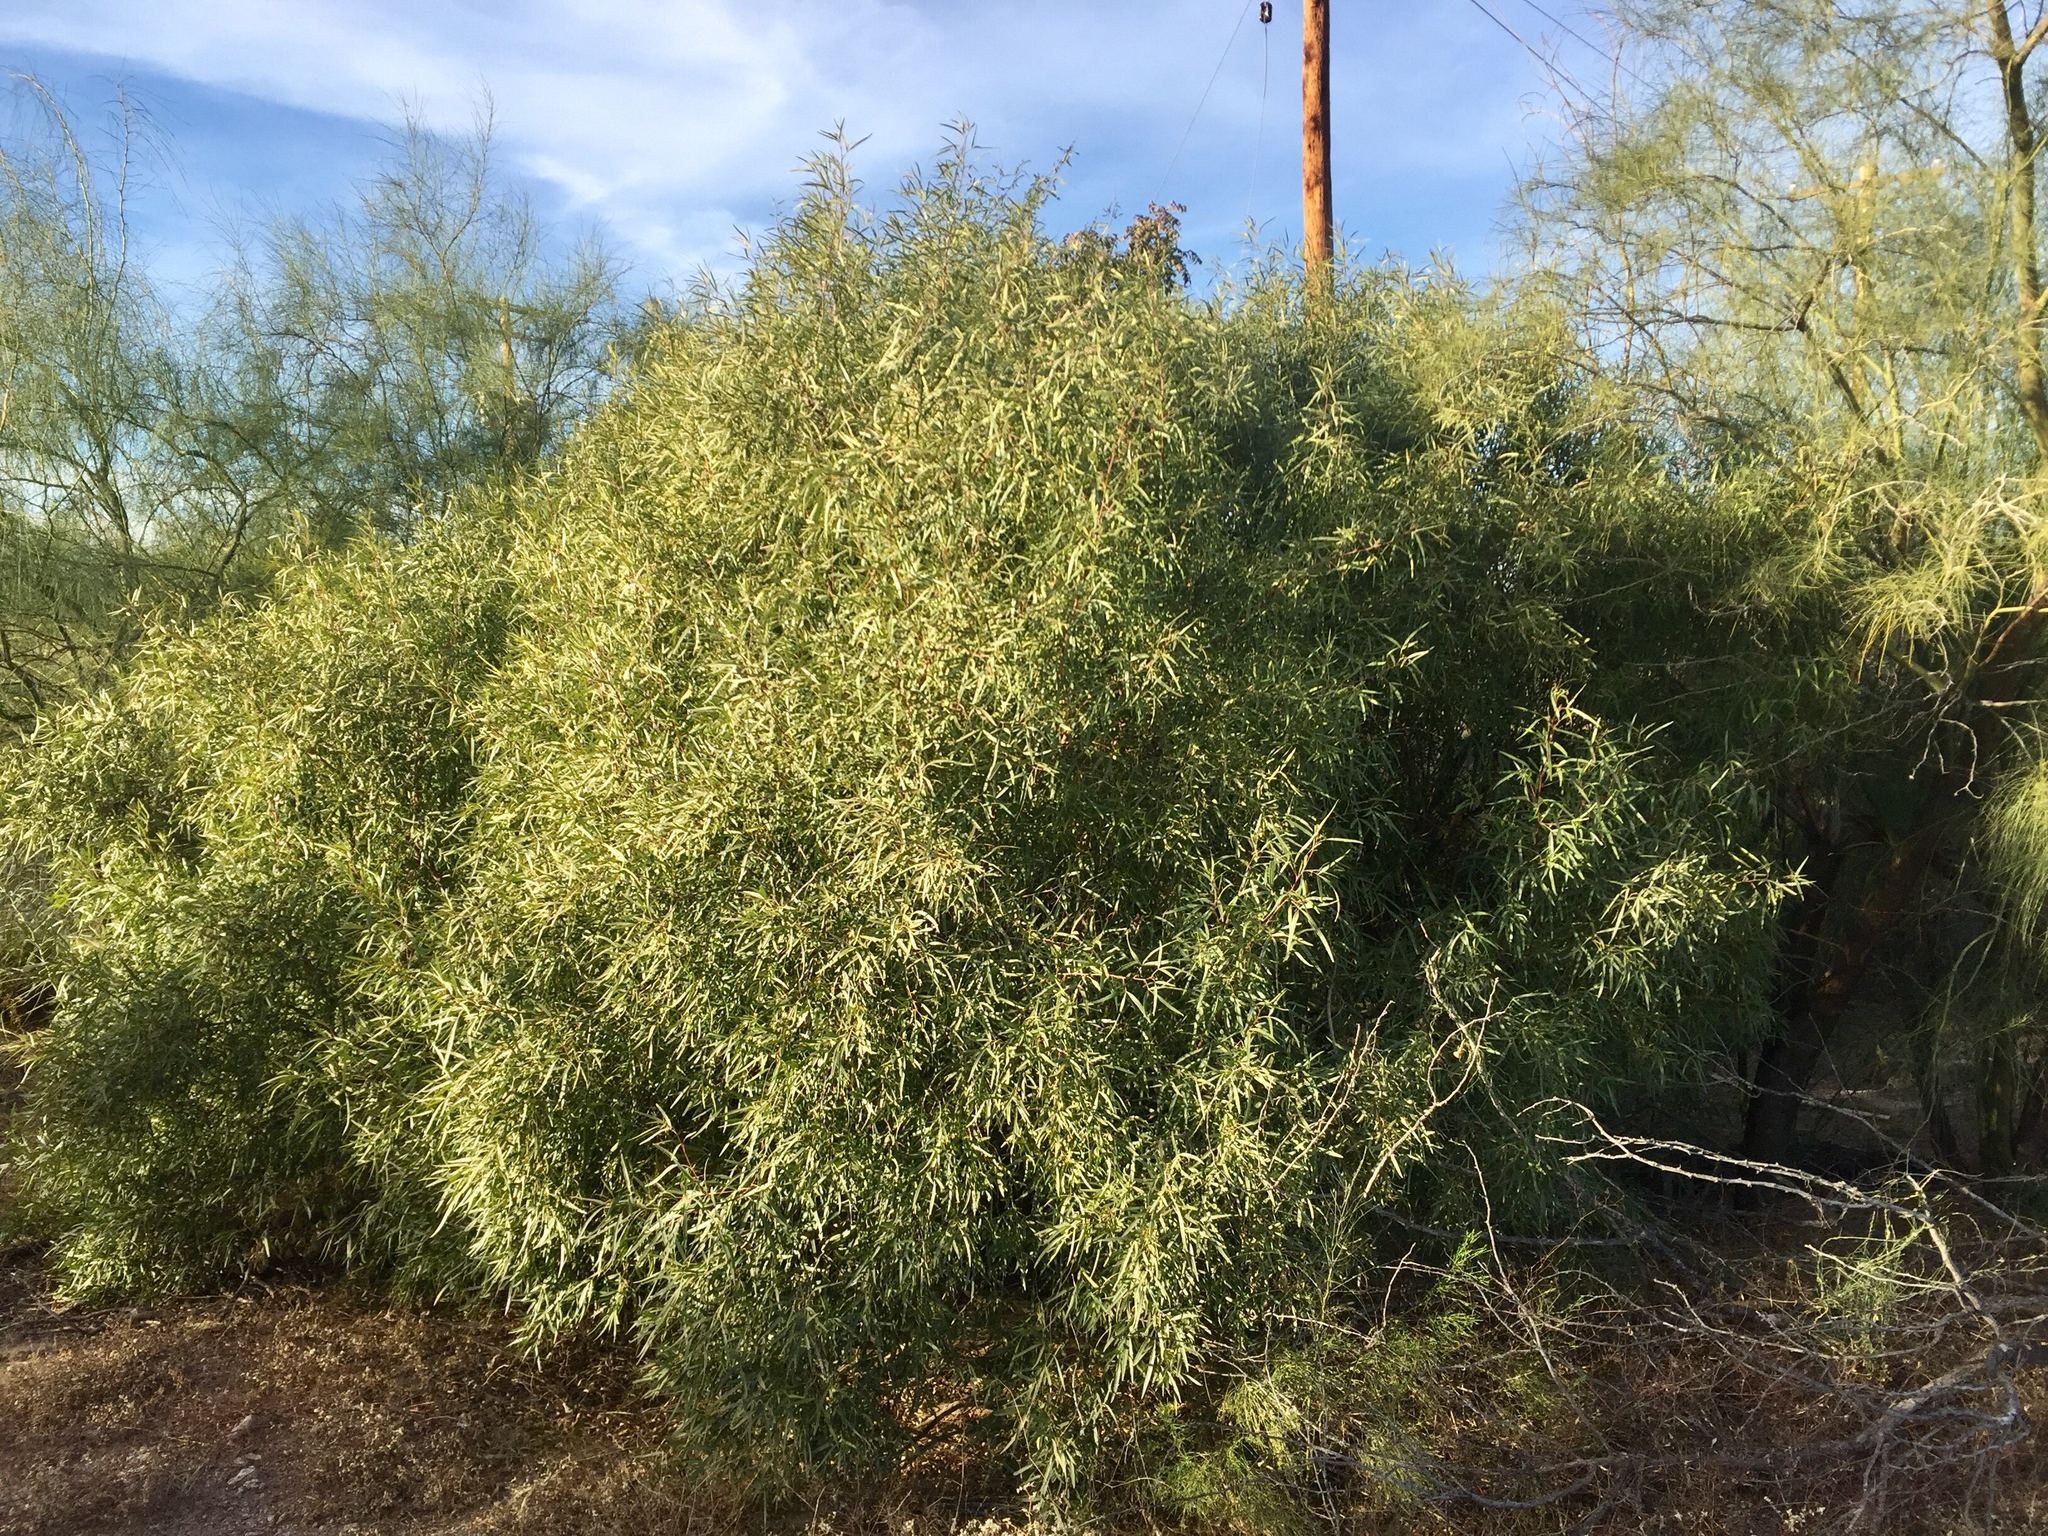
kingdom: Plantae
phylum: Tracheophyta
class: Magnoliopsida
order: Sapindales
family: Anacardiaceae
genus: Searsia
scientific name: Searsia lancea
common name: Cashew
